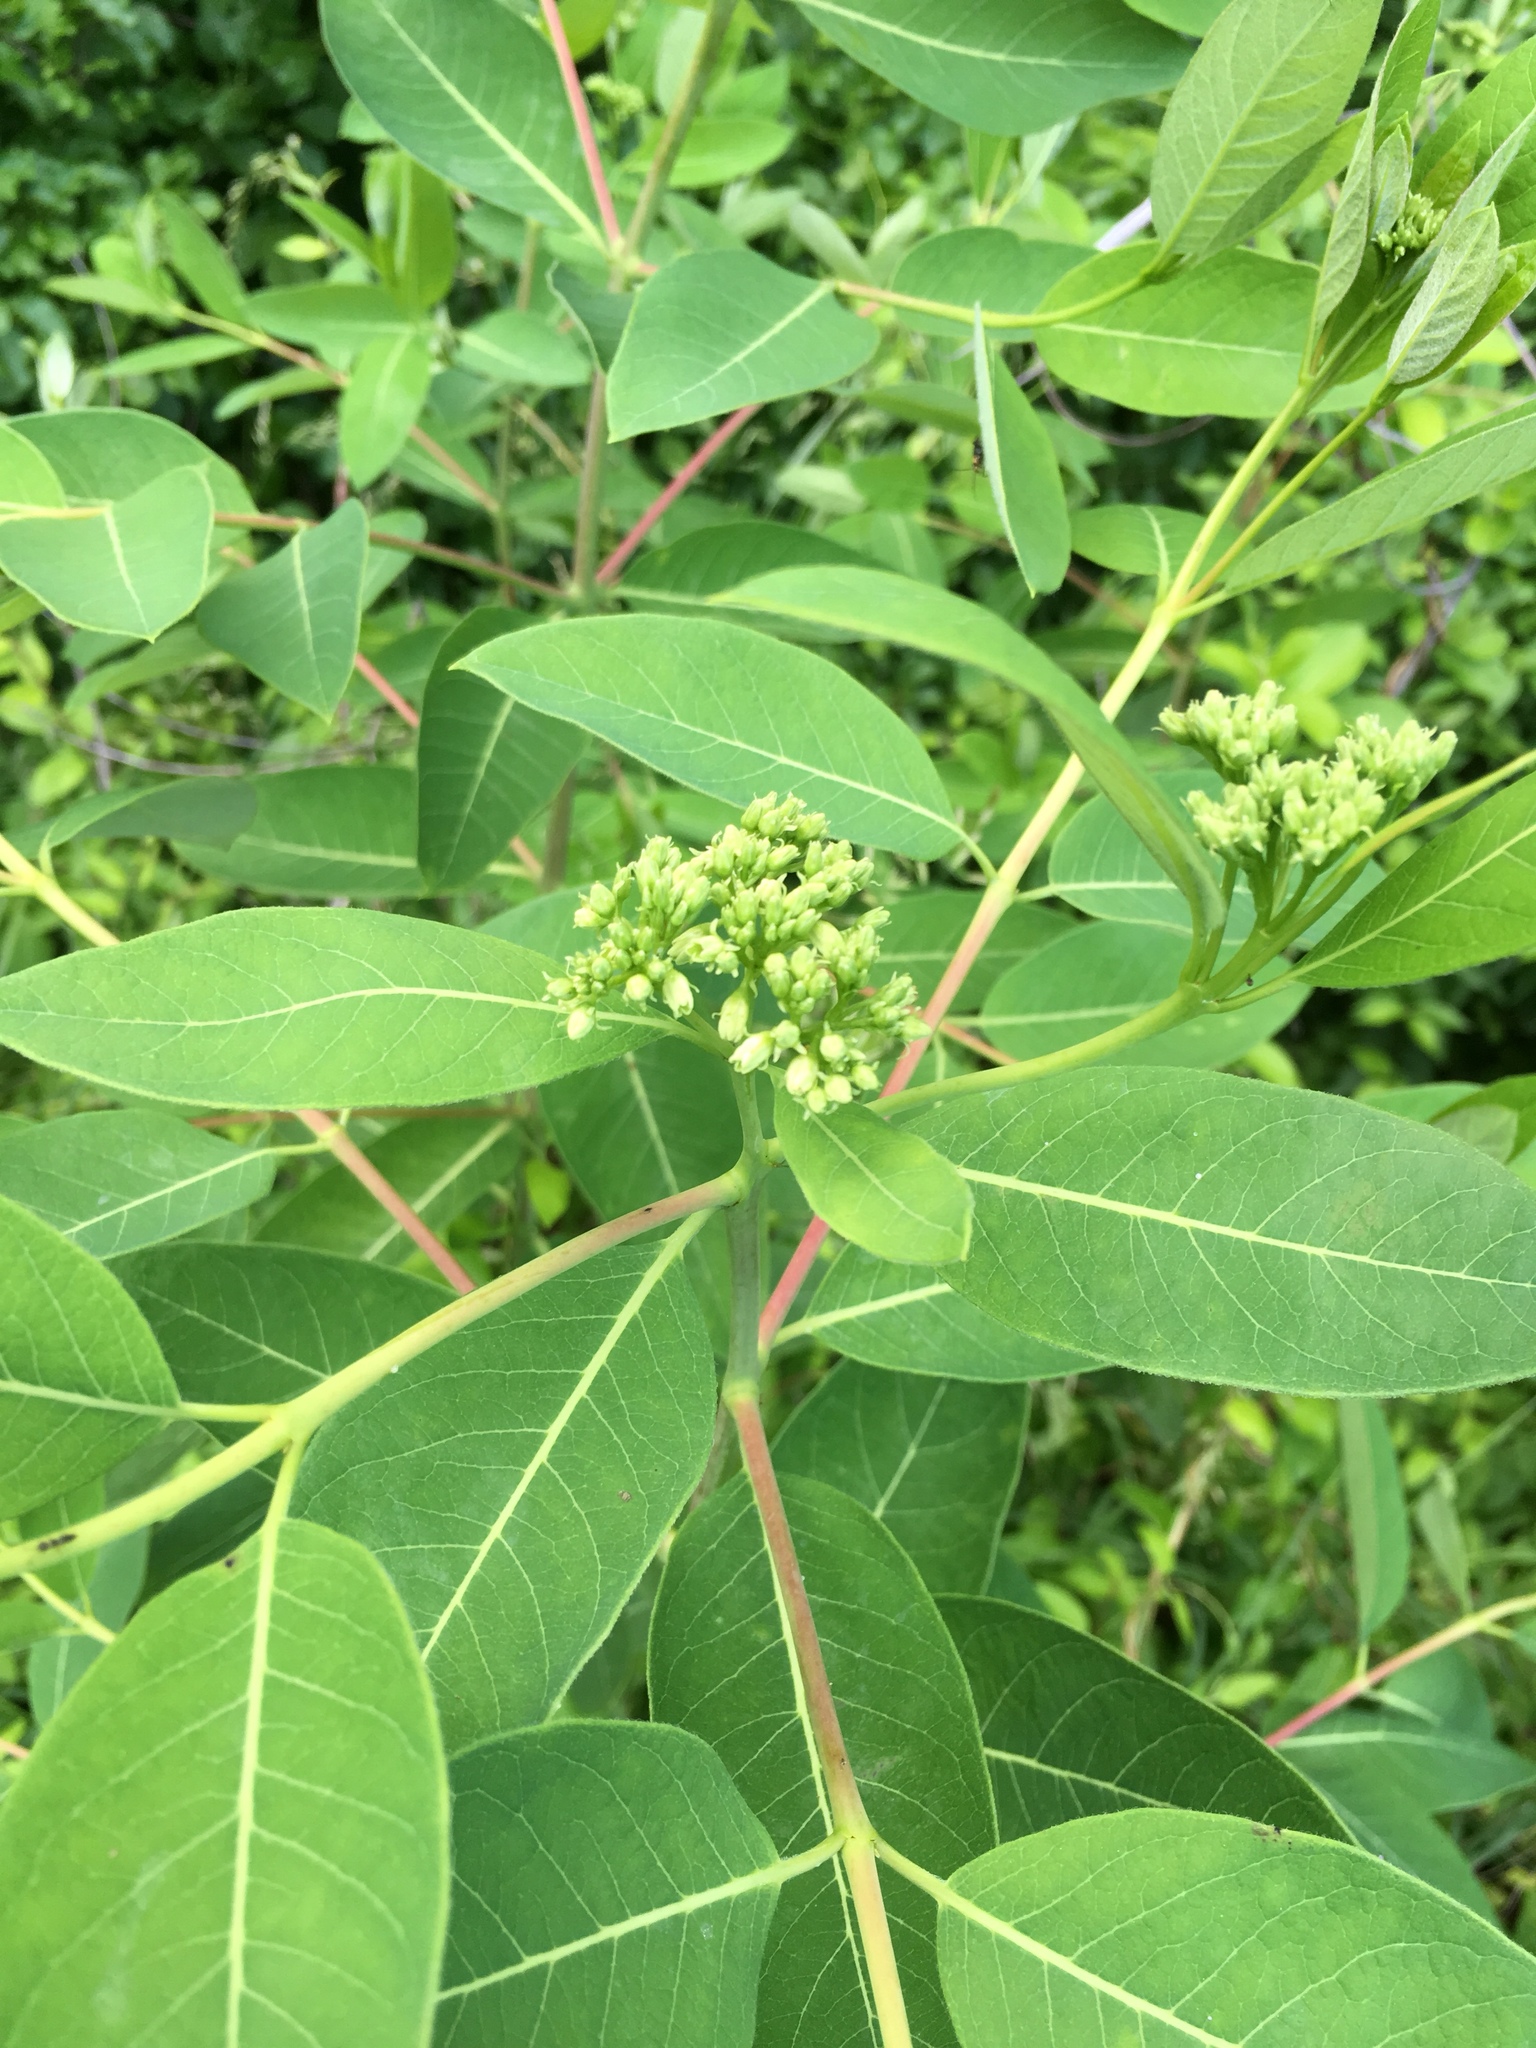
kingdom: Plantae
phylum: Tracheophyta
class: Magnoliopsida
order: Gentianales
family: Apocynaceae
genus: Apocynum
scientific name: Apocynum cannabinum
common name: Hemp dogbane
